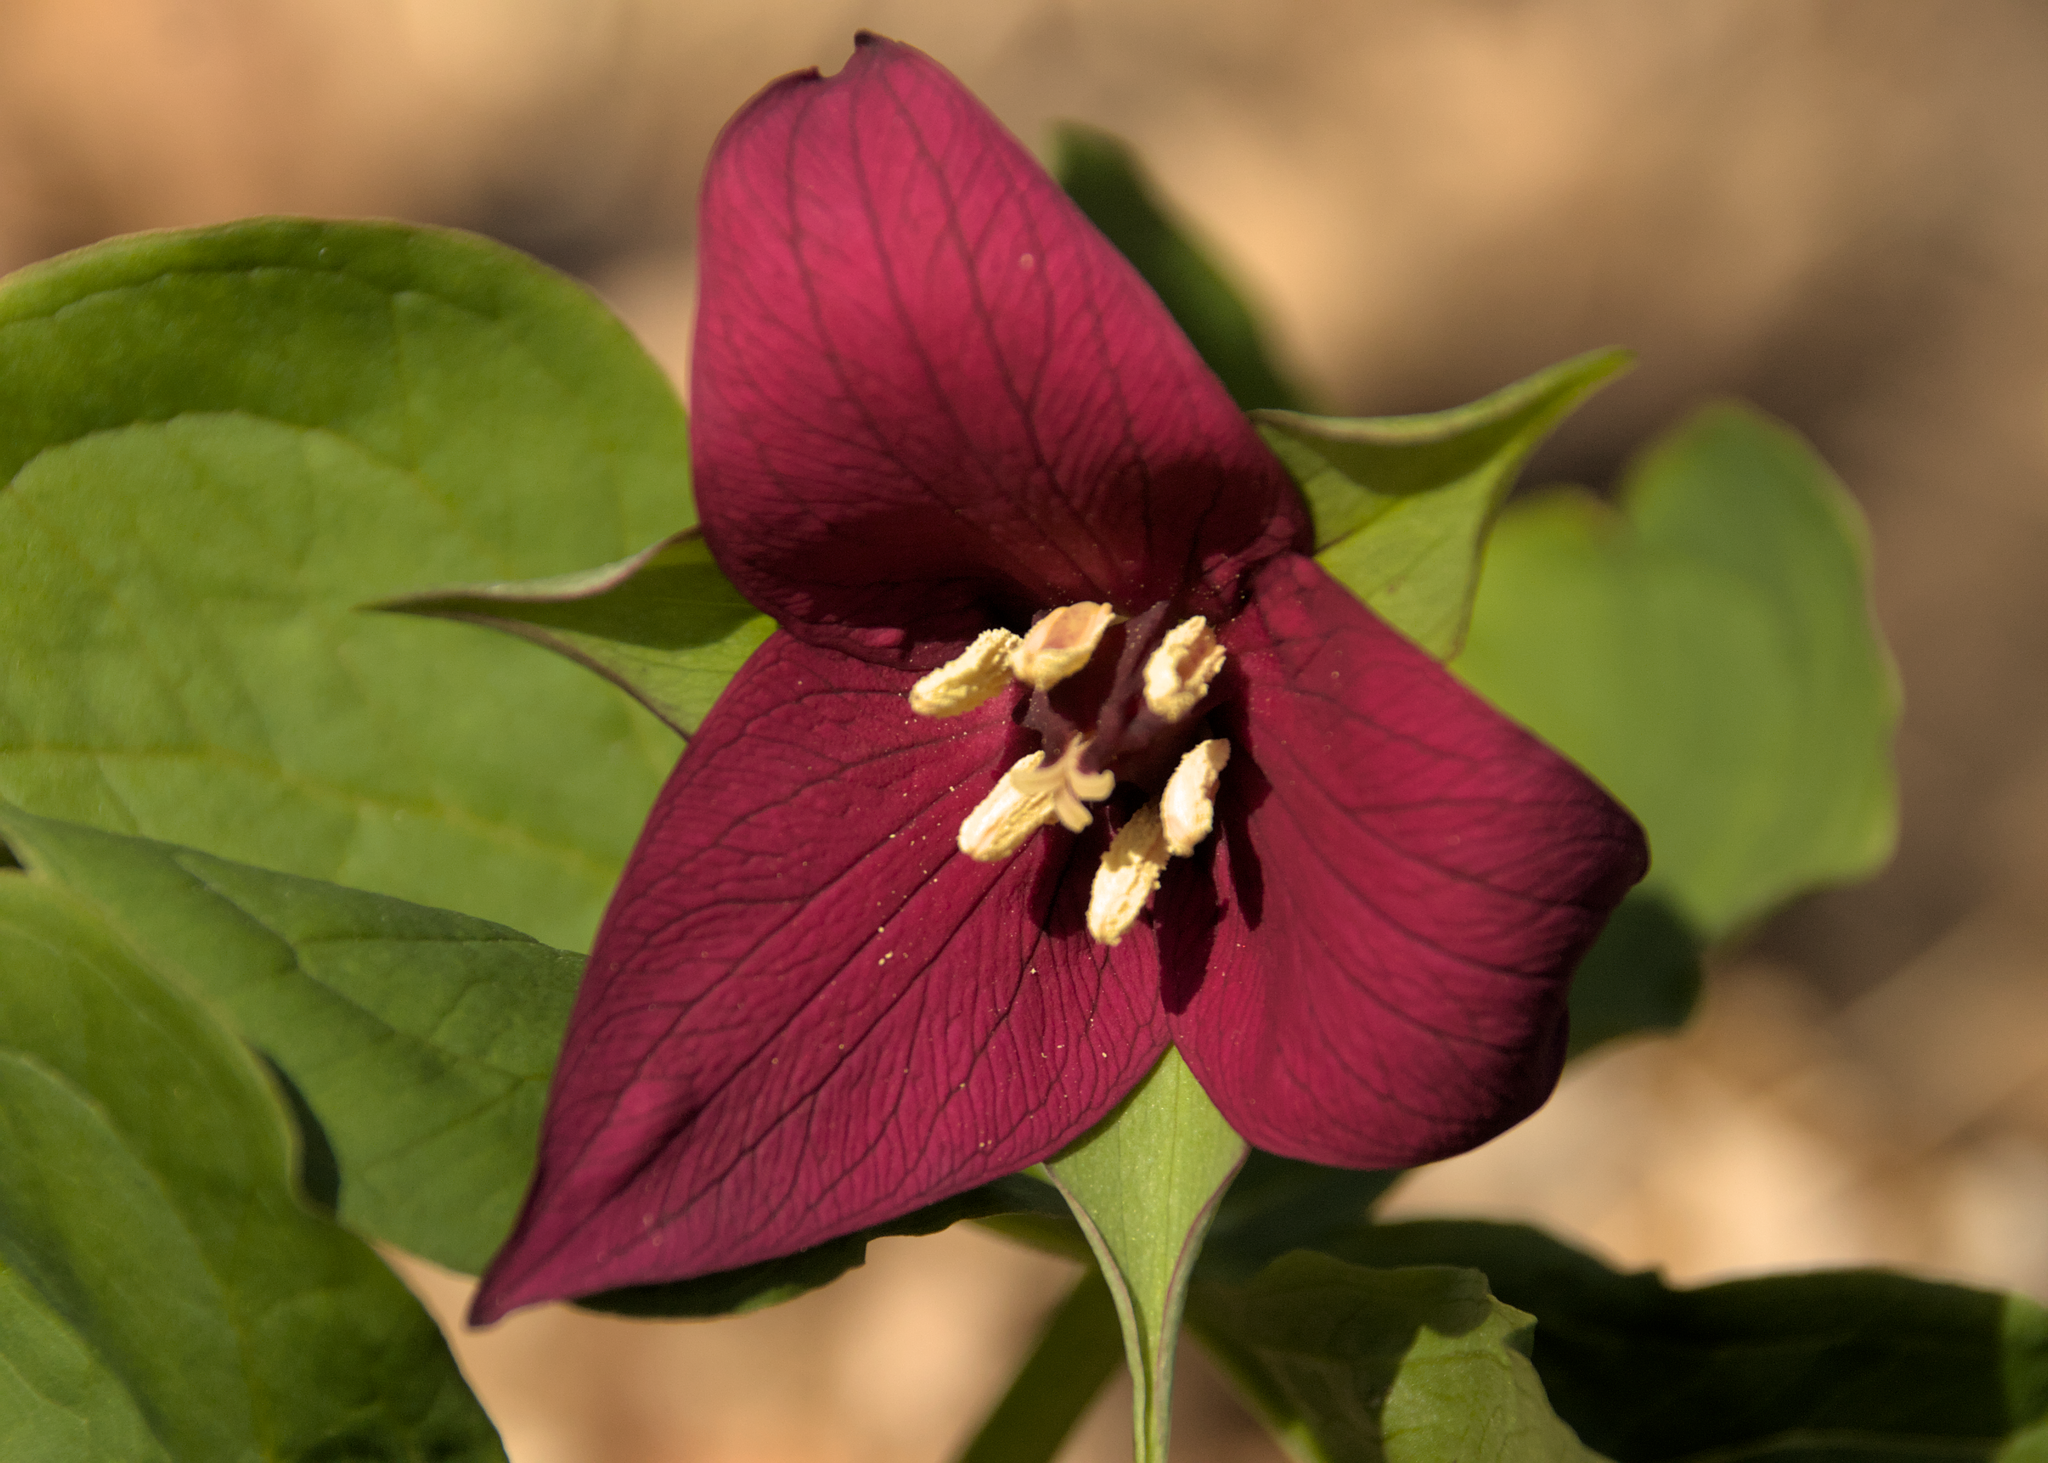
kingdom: Plantae
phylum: Tracheophyta
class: Liliopsida
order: Liliales
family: Melanthiaceae
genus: Trillium
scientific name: Trillium erectum
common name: Purple trillium
